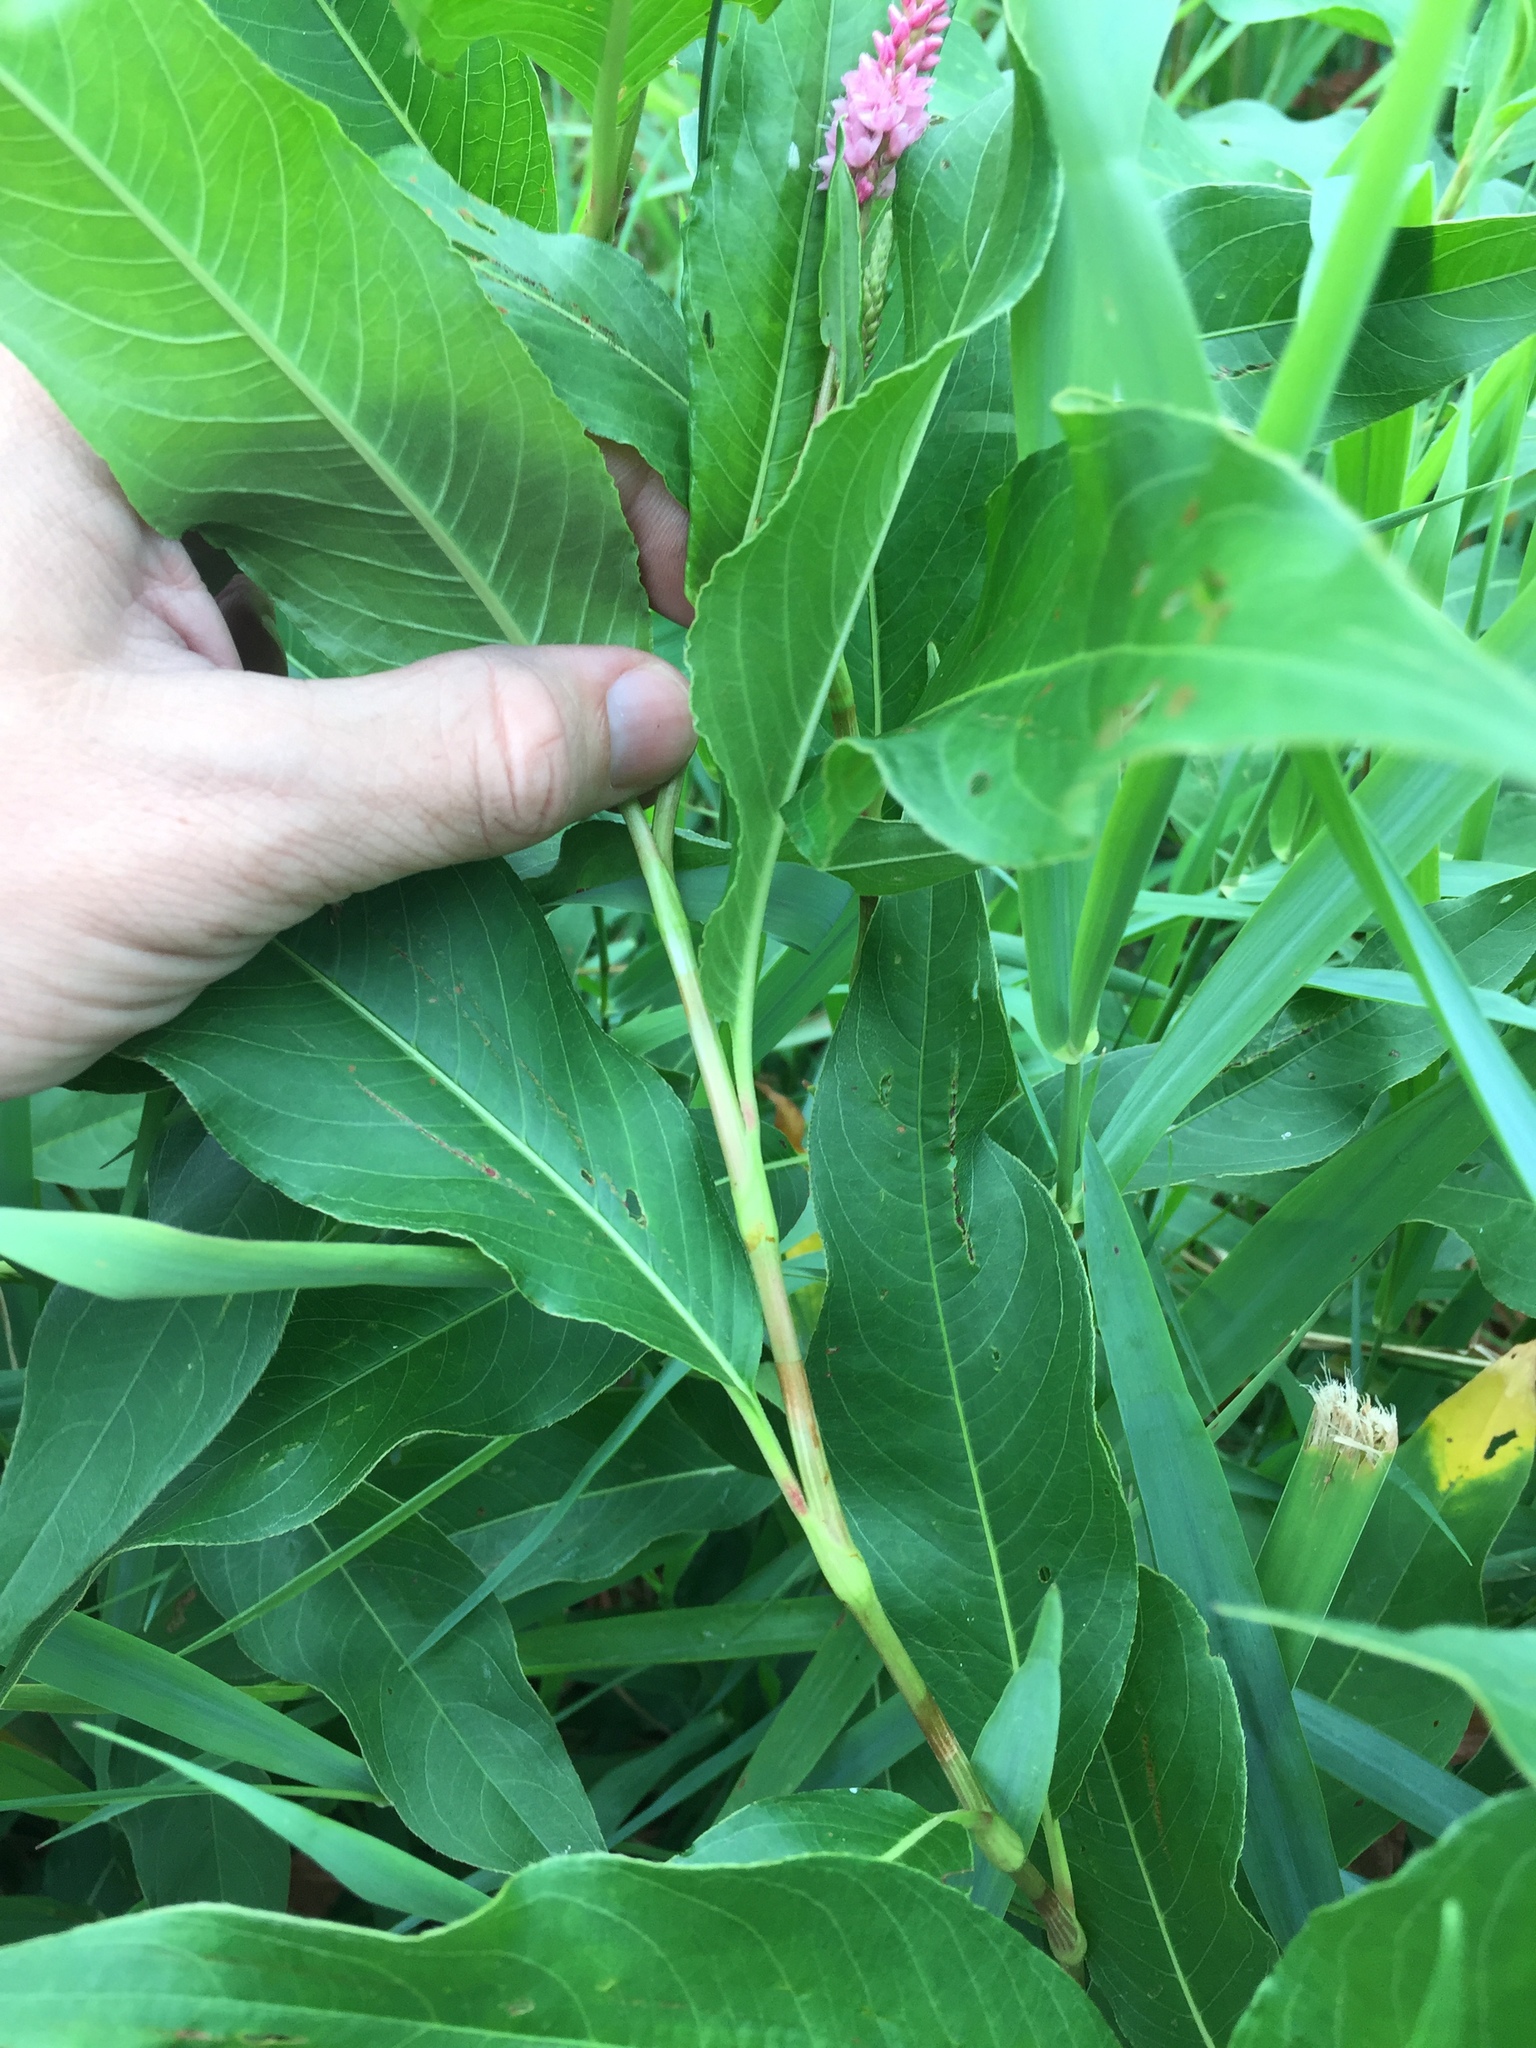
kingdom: Plantae
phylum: Tracheophyta
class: Magnoliopsida
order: Caryophyllales
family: Polygonaceae
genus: Persicaria
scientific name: Persicaria amphibia
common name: Amphibious bistort
